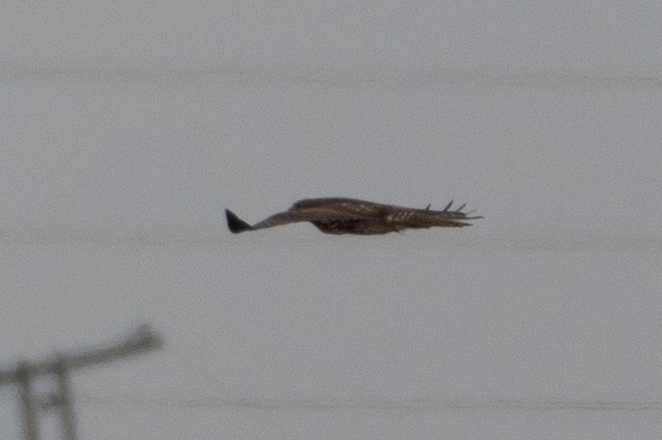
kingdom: Animalia
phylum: Chordata
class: Aves
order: Accipitriformes
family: Accipitridae
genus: Buteo
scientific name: Buteo jamaicensis
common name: Red-tailed hawk
